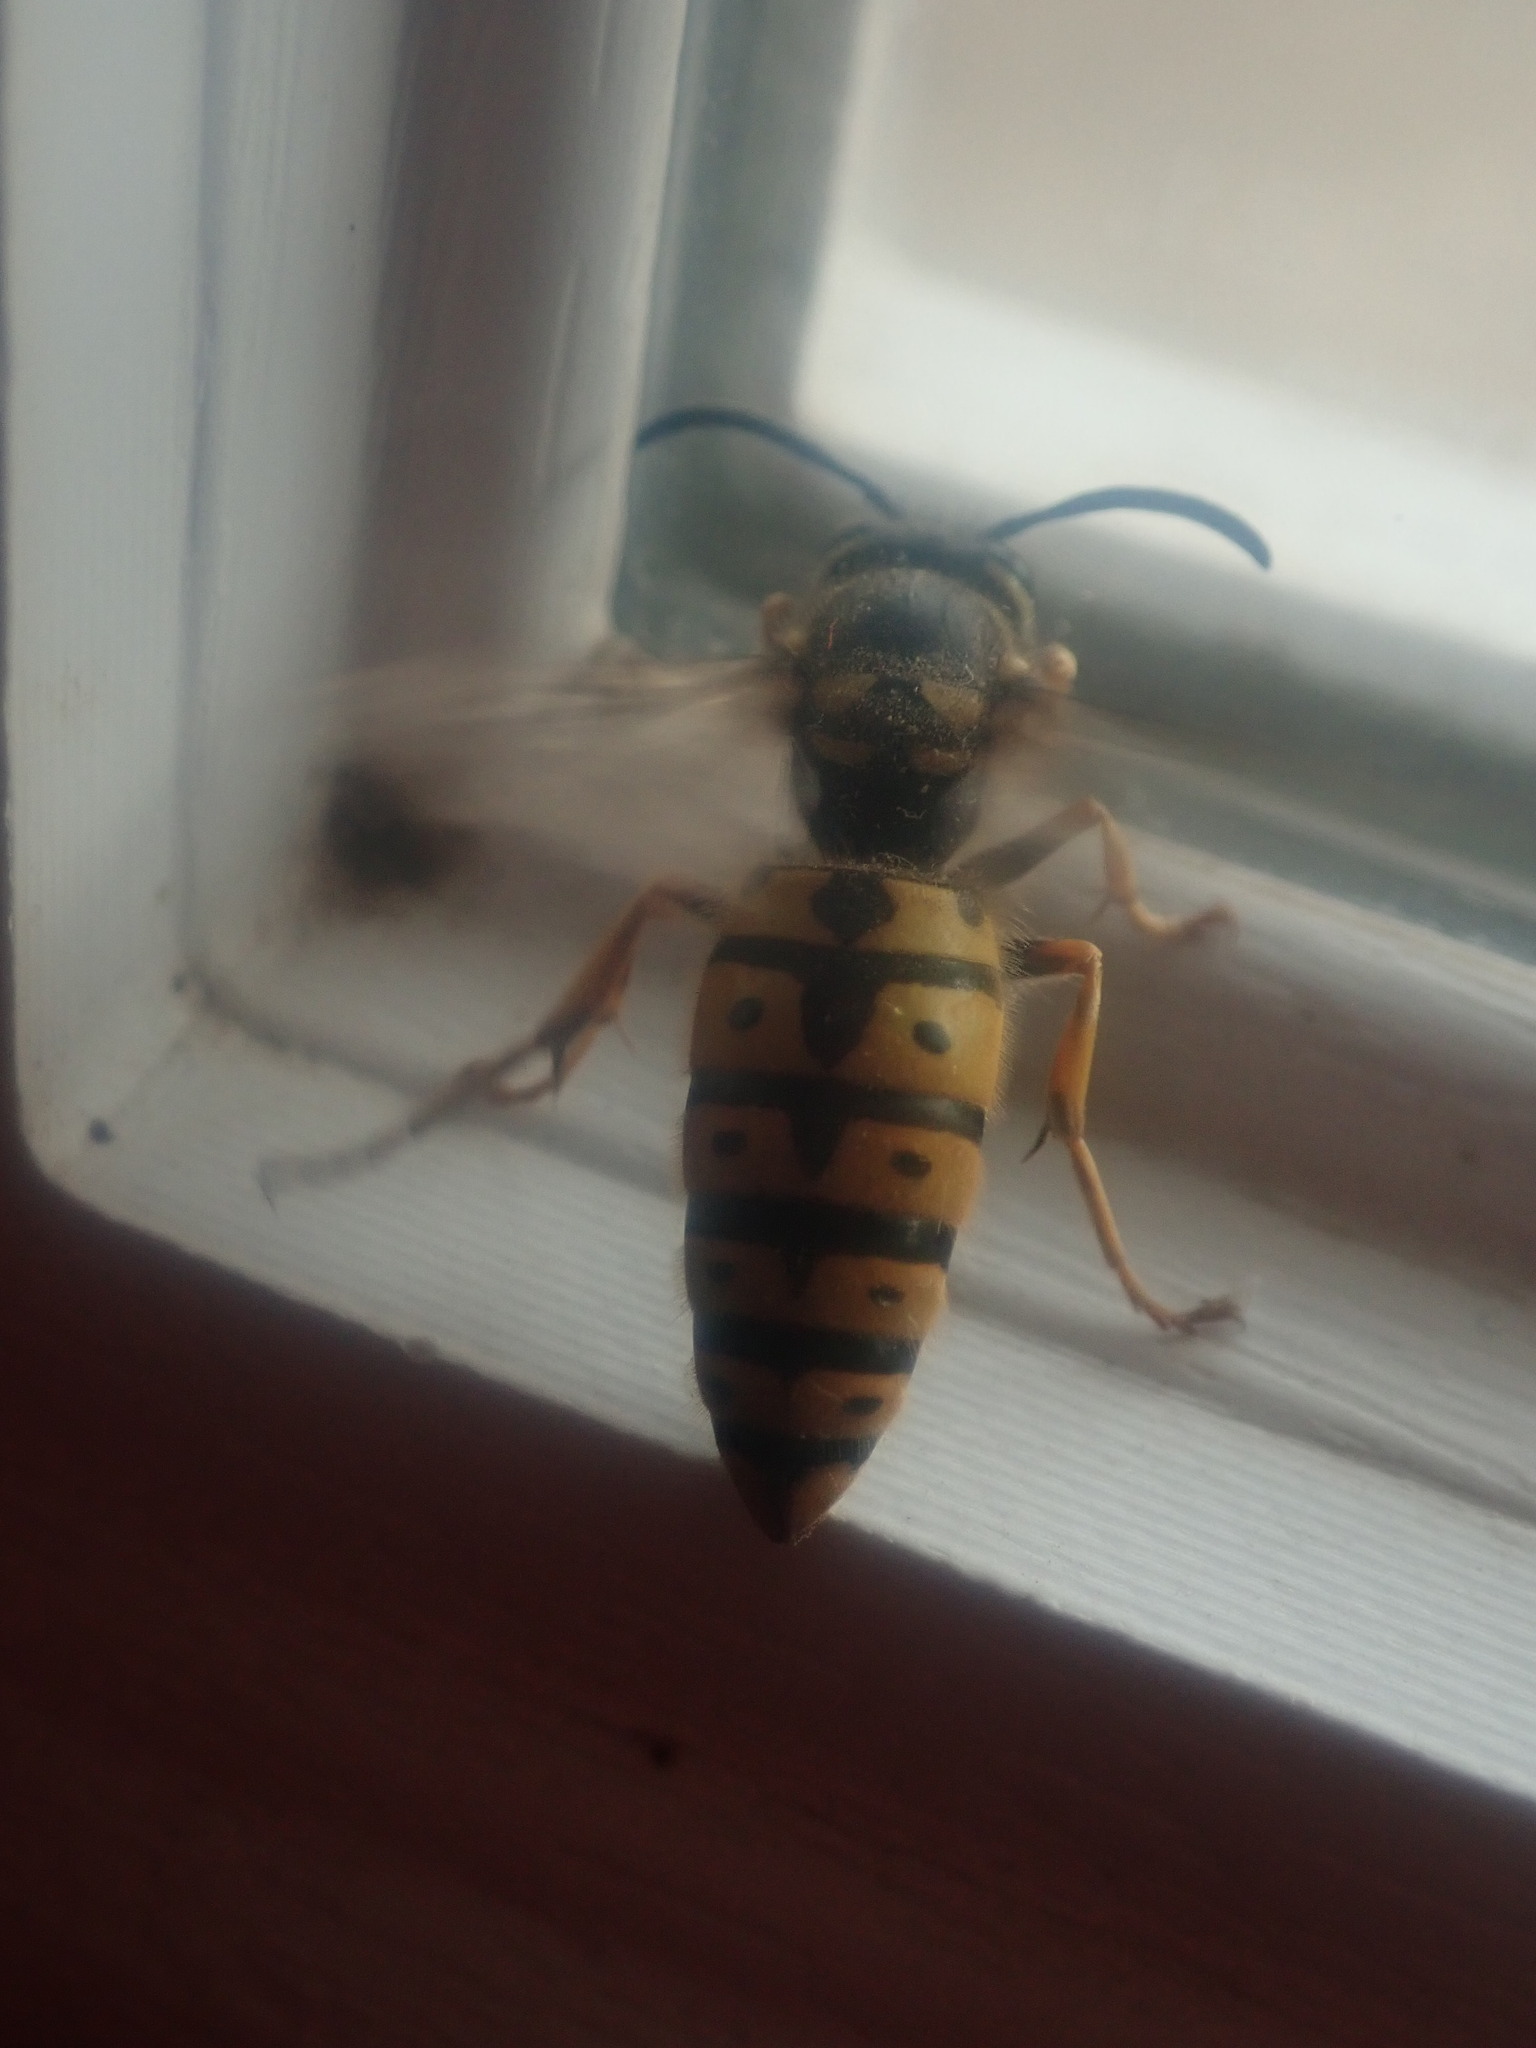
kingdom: Animalia
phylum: Arthropoda
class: Insecta
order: Hymenoptera
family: Vespidae
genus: Vespula
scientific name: Vespula germanica
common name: German wasp
